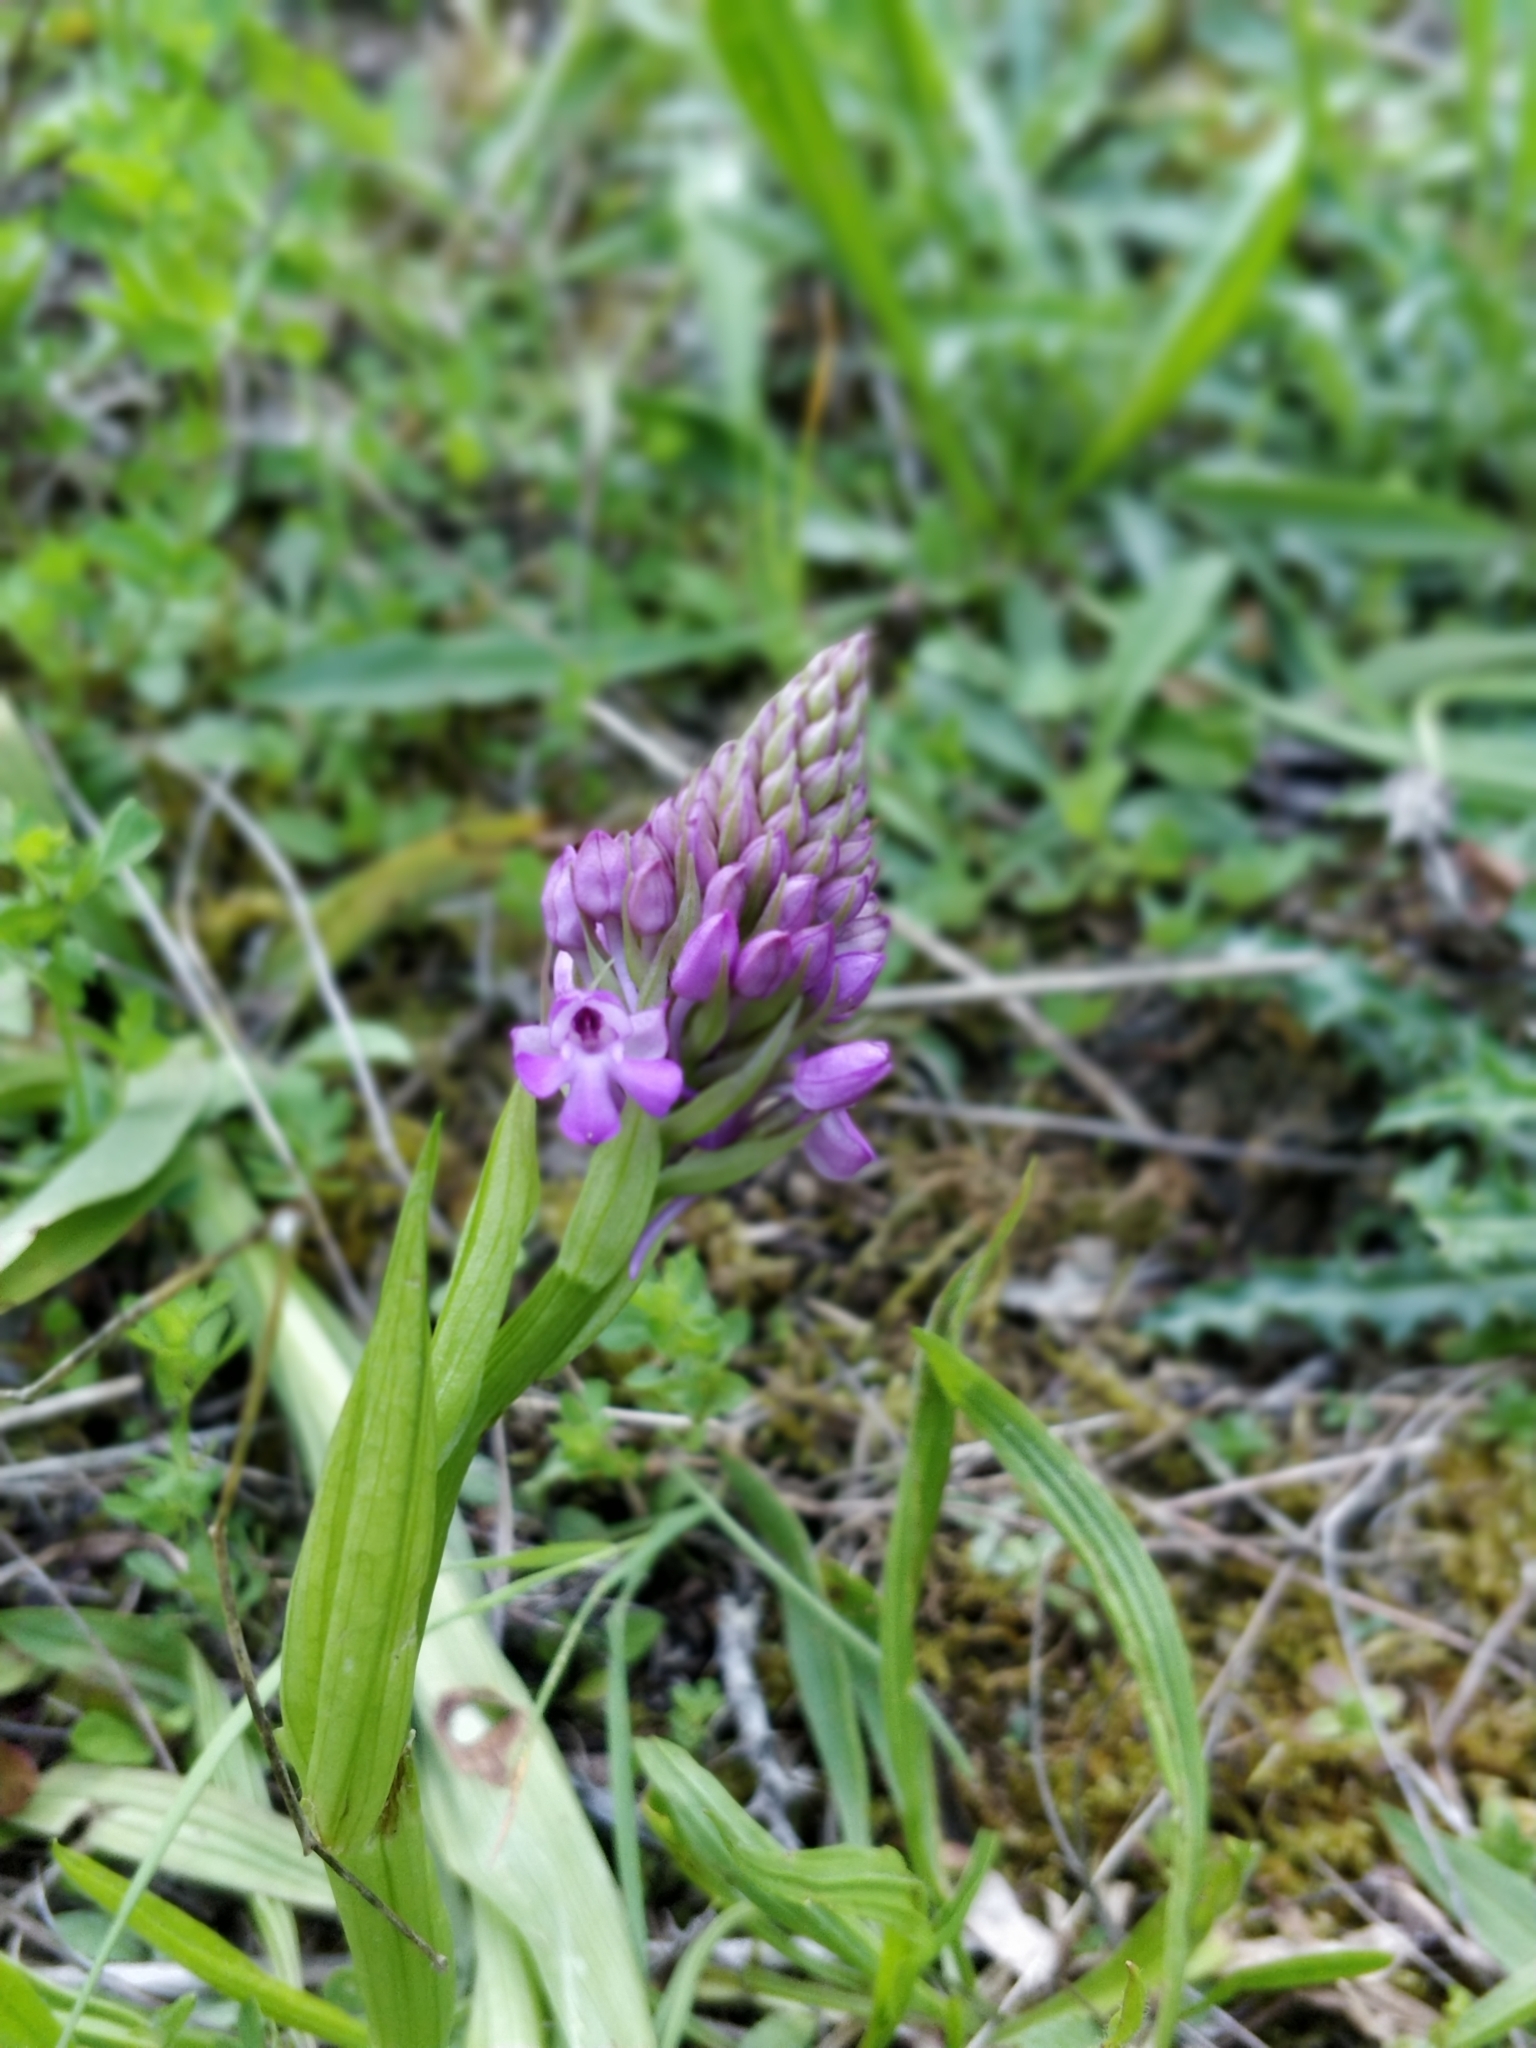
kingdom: Plantae
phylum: Tracheophyta
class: Liliopsida
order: Asparagales
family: Orchidaceae
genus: Anacamptis
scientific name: Anacamptis pyramidalis
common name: Pyramidal orchid
